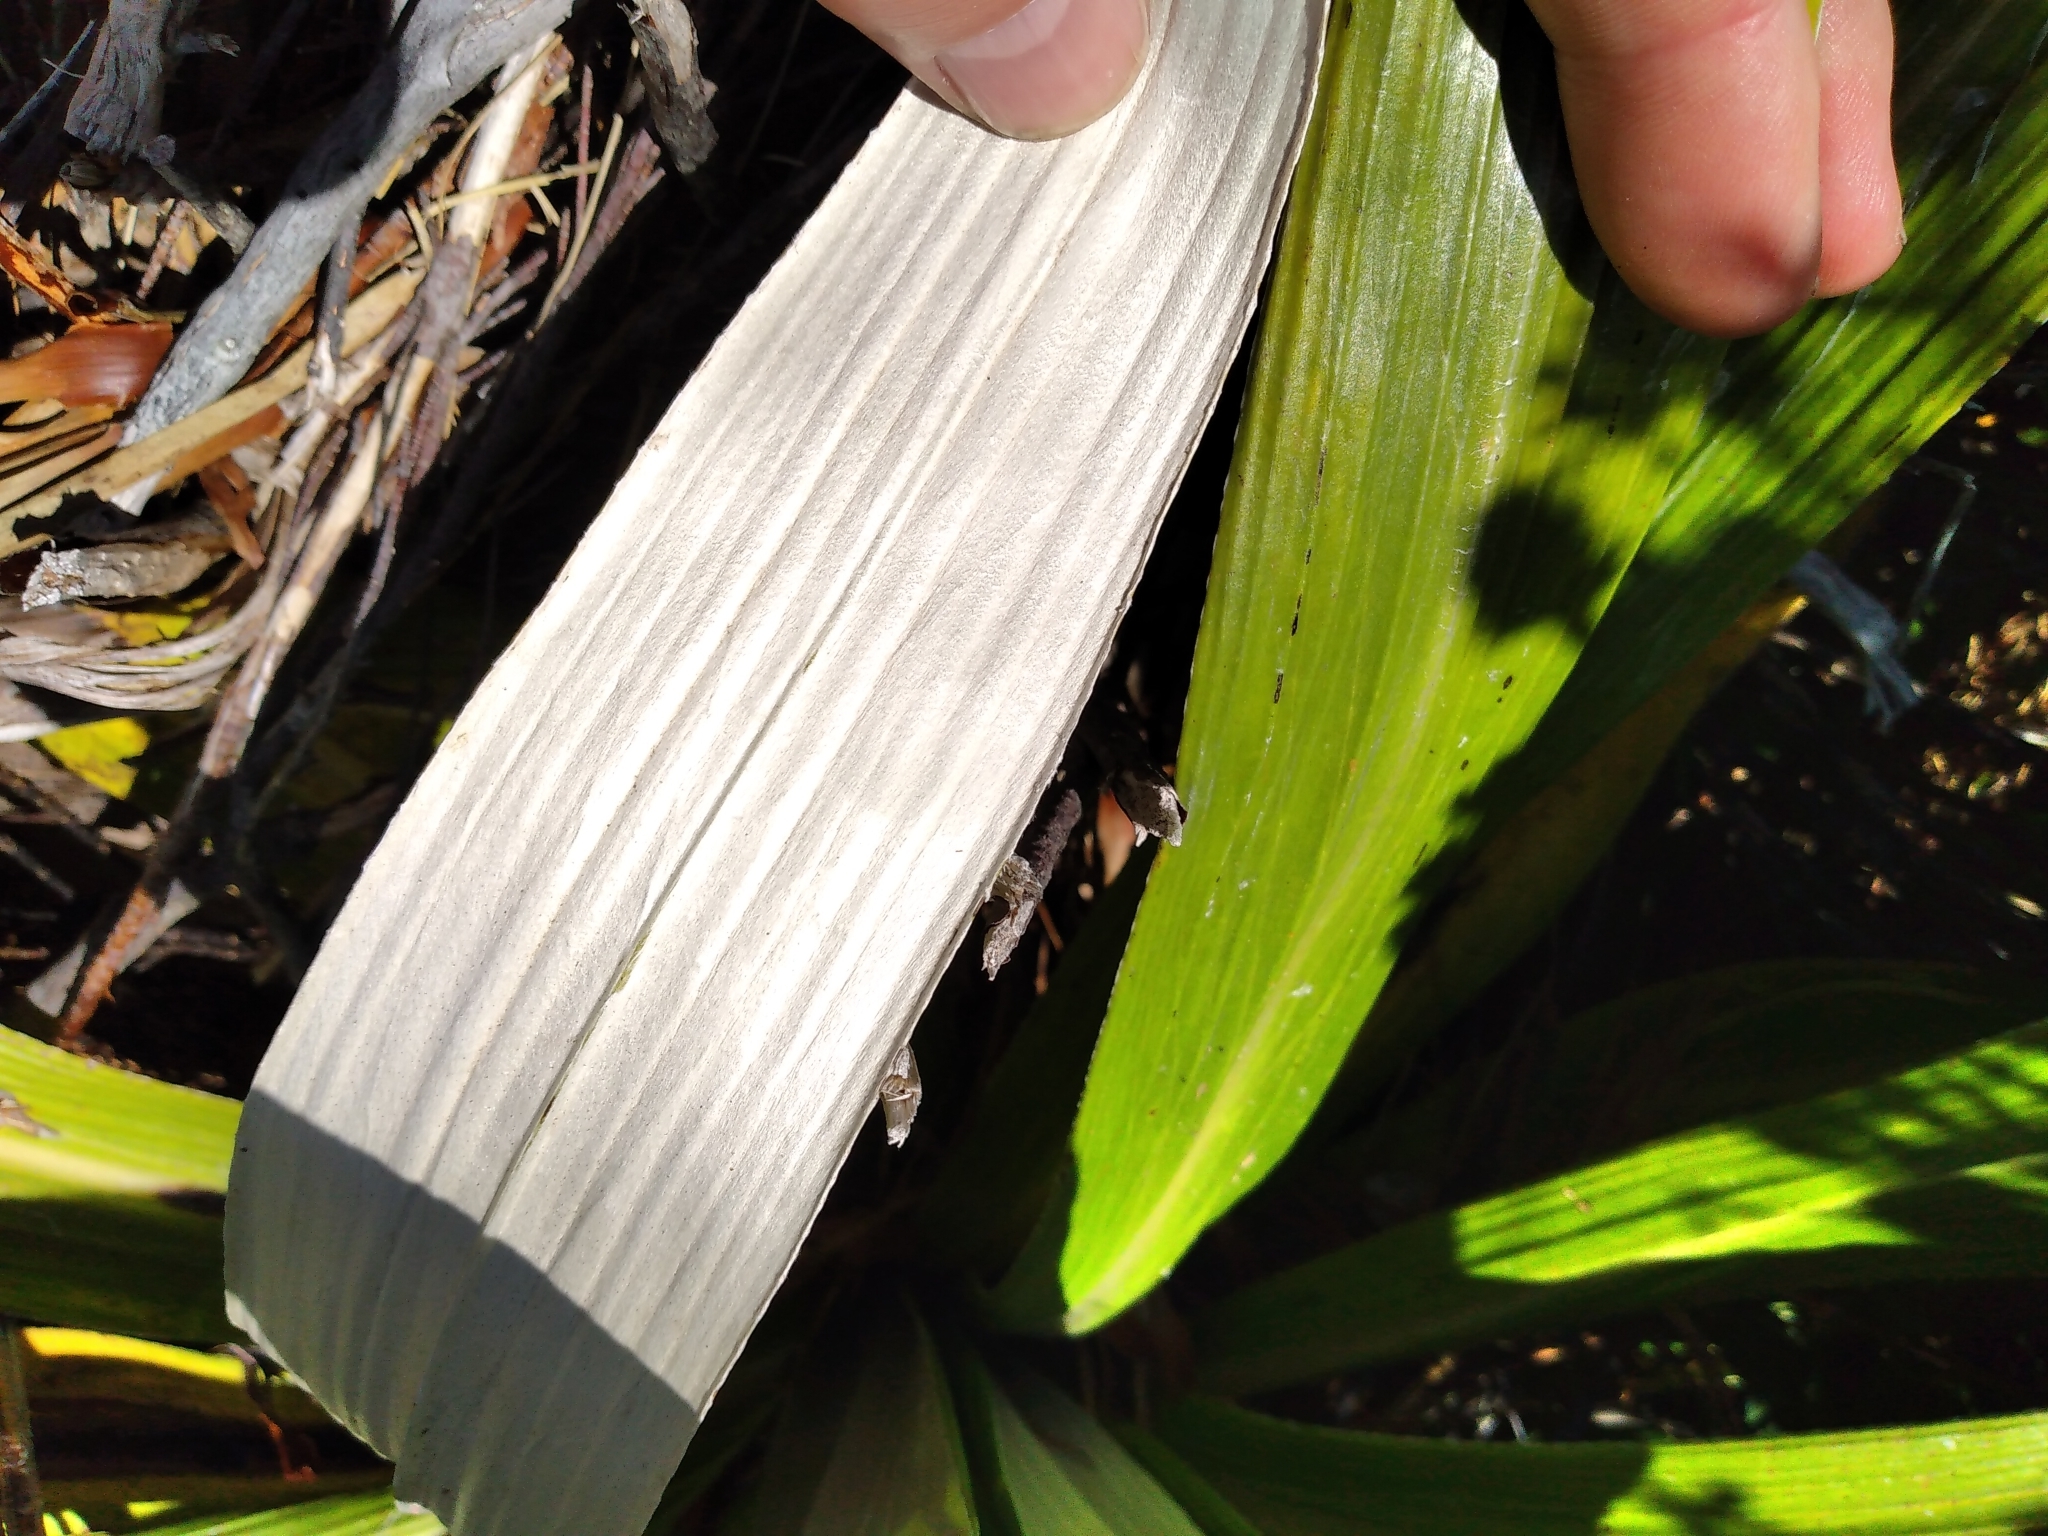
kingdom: Plantae
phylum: Tracheophyta
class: Magnoliopsida
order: Asterales
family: Asteraceae
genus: Celmisia
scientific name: Celmisia semicordata
